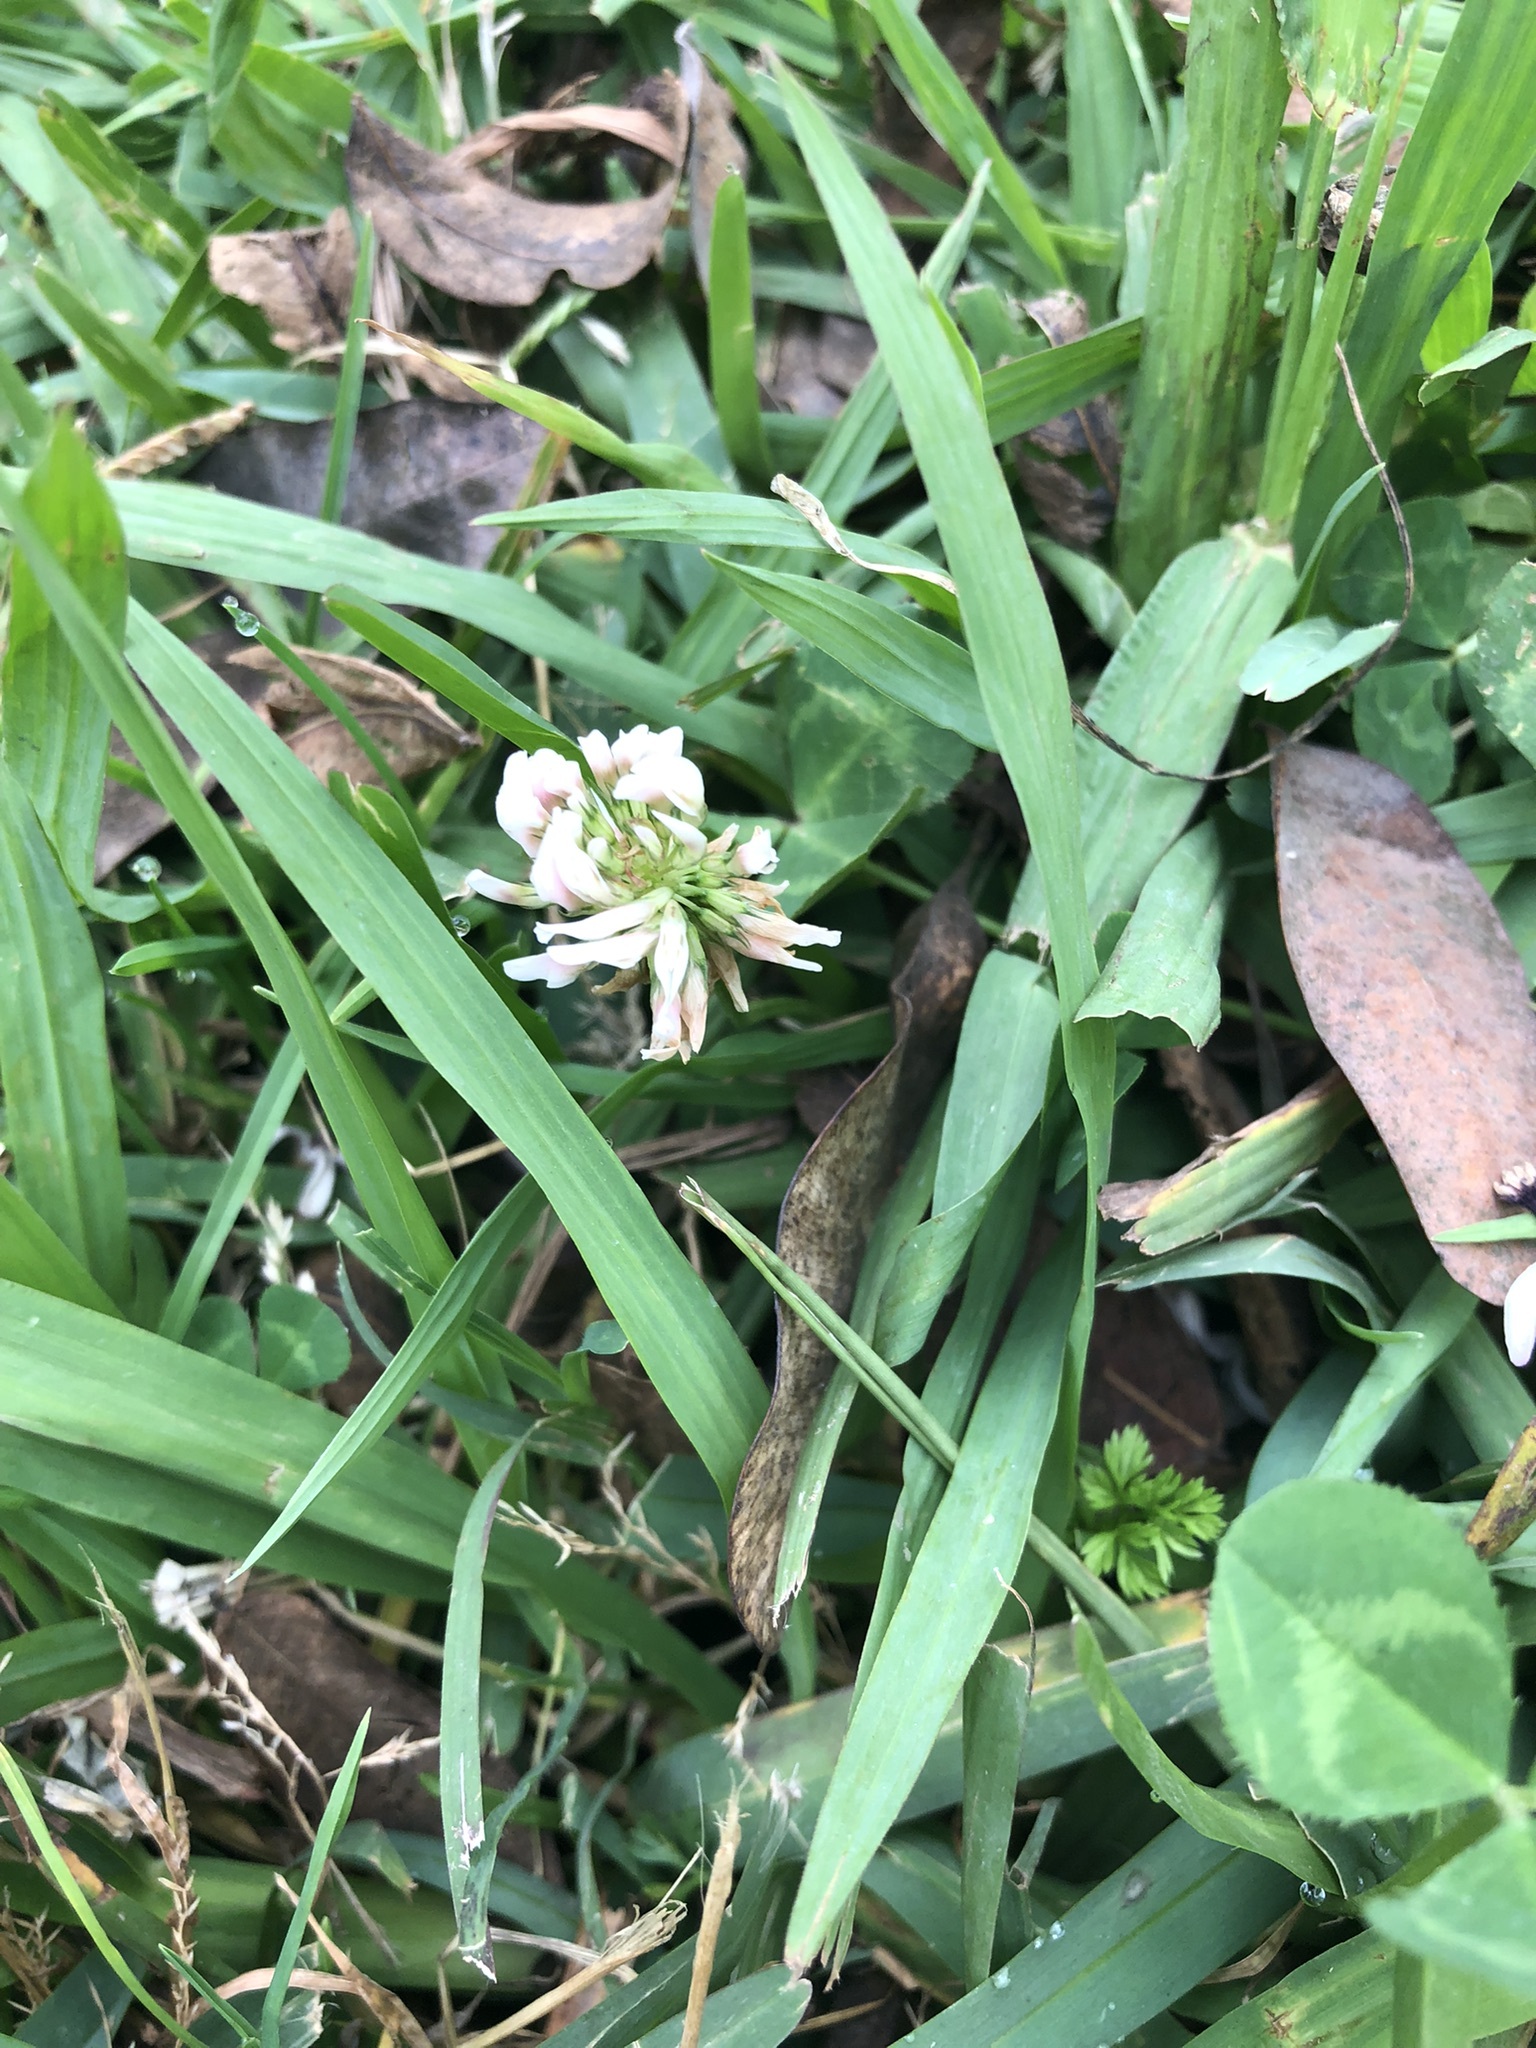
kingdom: Plantae
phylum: Tracheophyta
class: Magnoliopsida
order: Fabales
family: Fabaceae
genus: Trifolium
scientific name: Trifolium repens
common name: White clover
